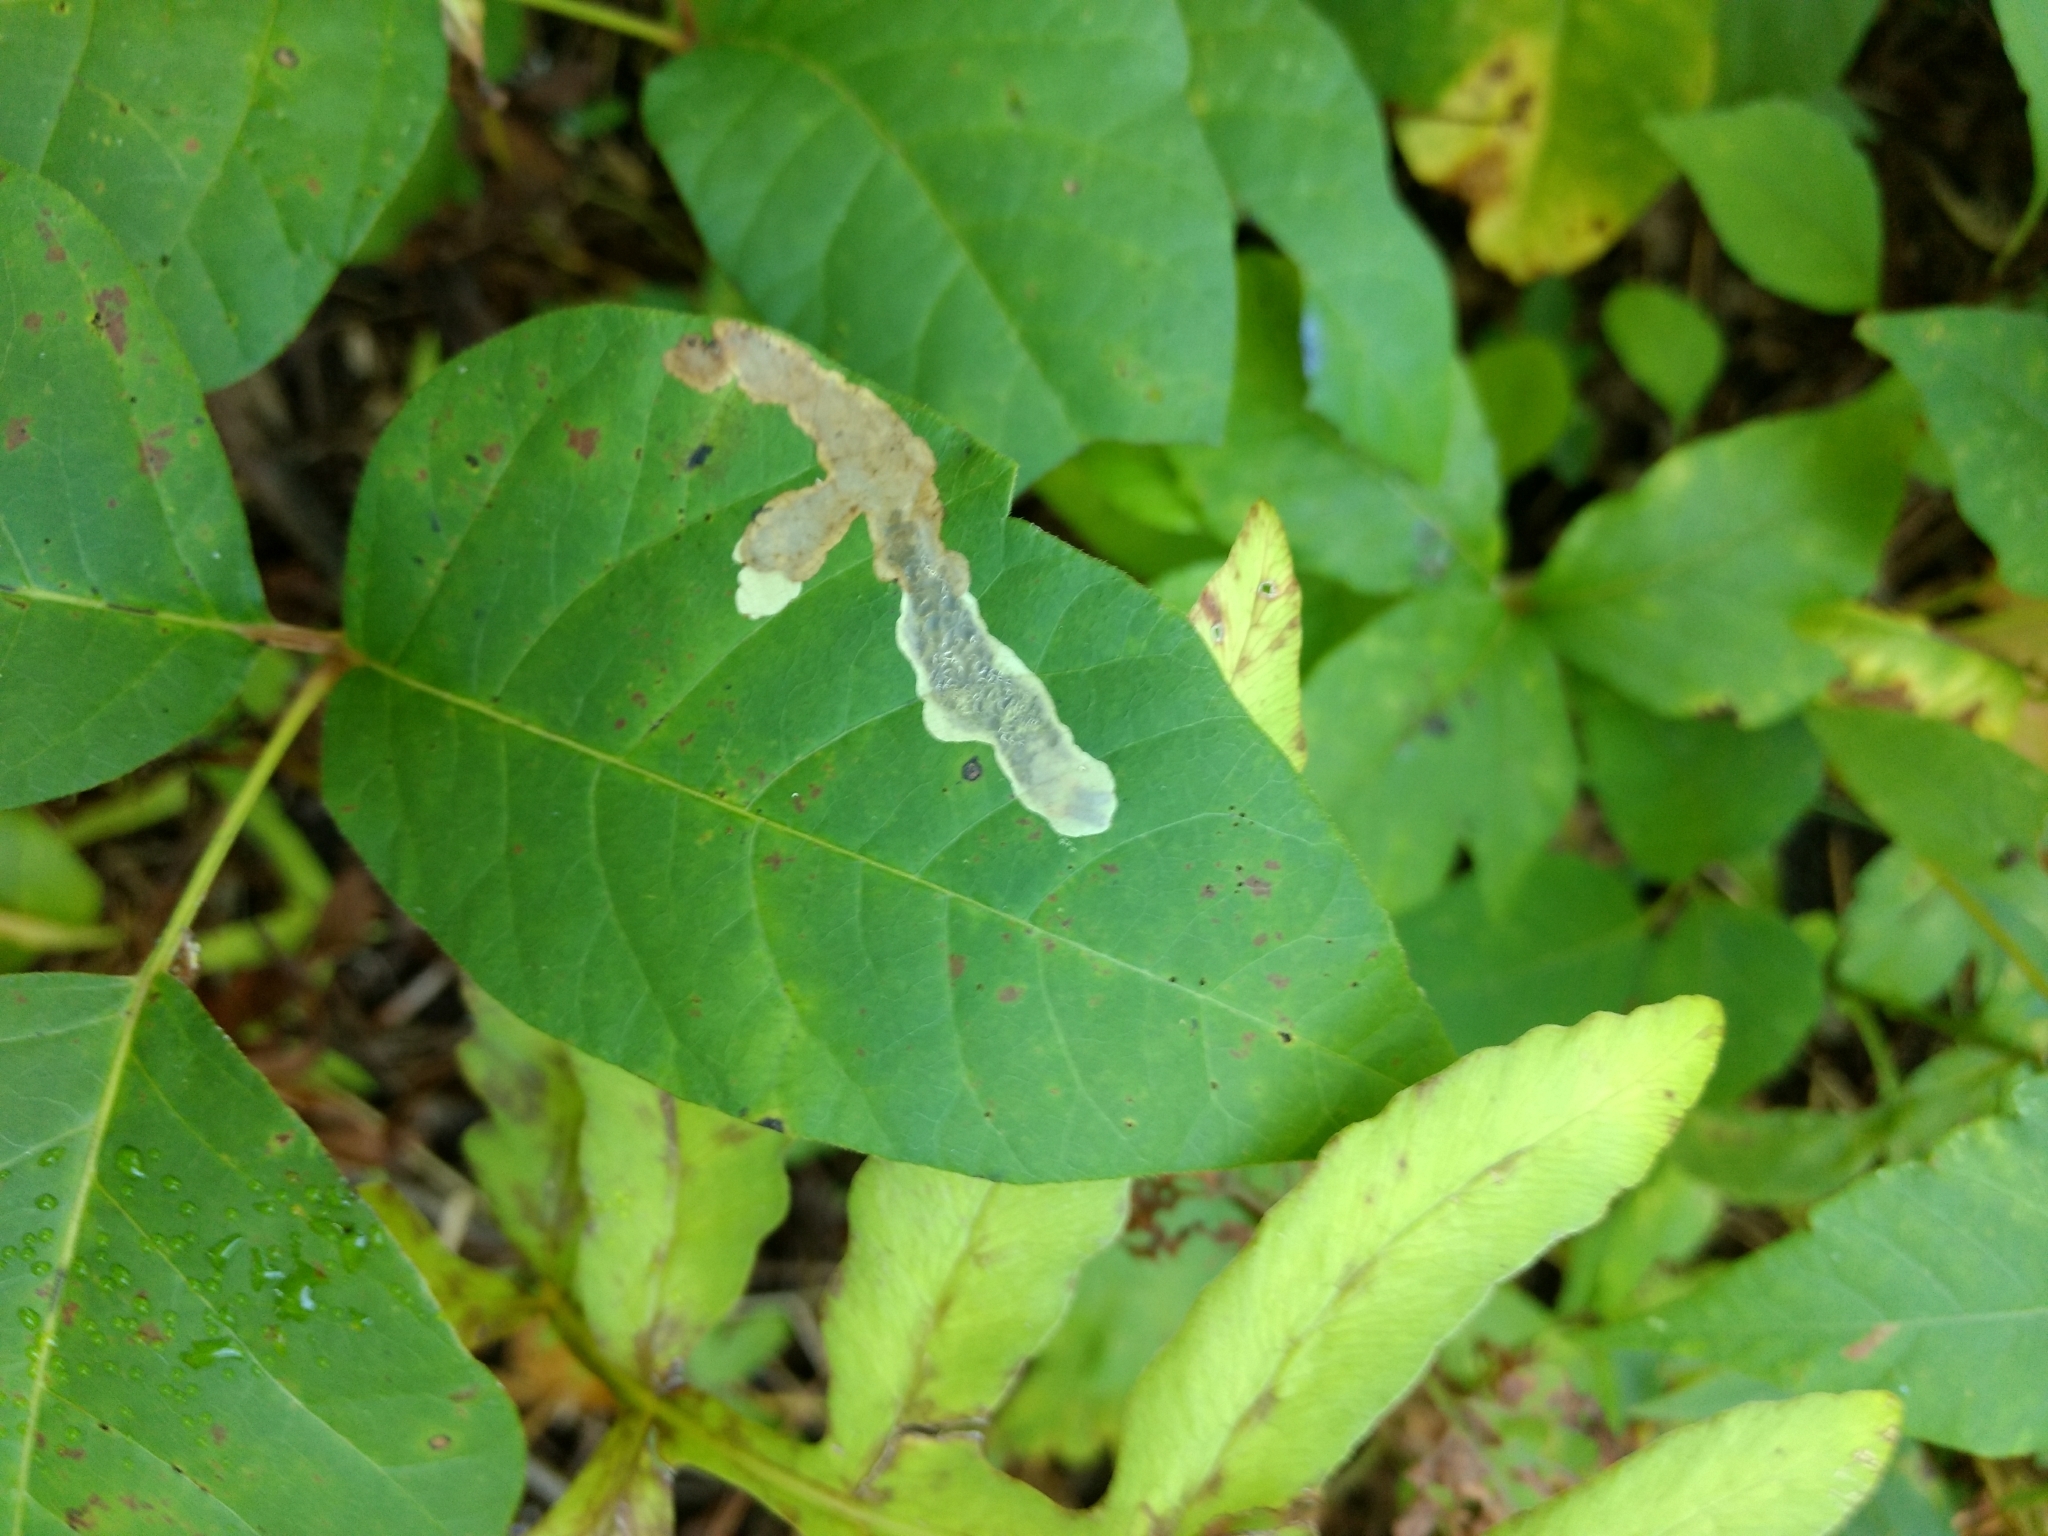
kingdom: Animalia
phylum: Arthropoda
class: Insecta
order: Lepidoptera
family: Gracillariidae
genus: Cameraria
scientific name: Cameraria guttifinitella
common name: Poison ivy leaf-miner moth
